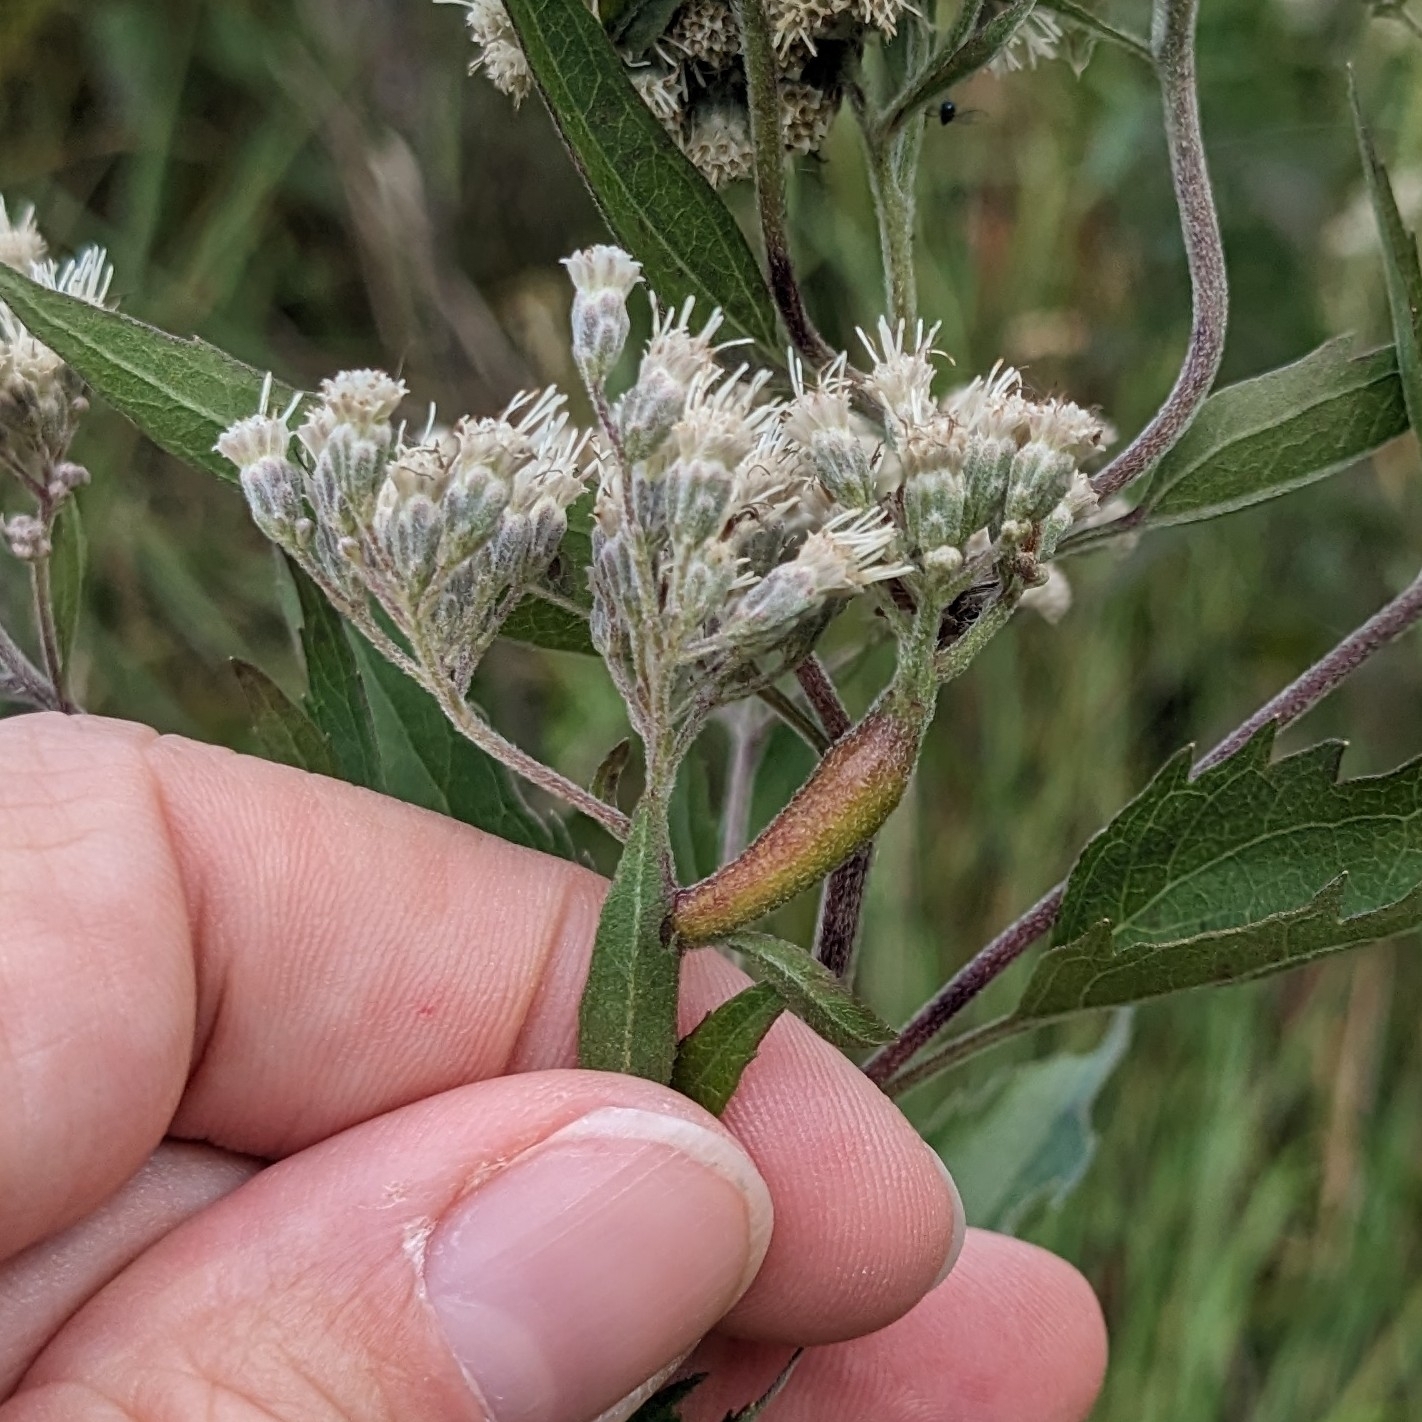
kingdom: Animalia
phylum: Arthropoda
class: Insecta
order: Diptera
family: Cecidomyiidae
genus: Neolasioptera
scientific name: Neolasioptera perfoliata
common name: Boneset stem midge
